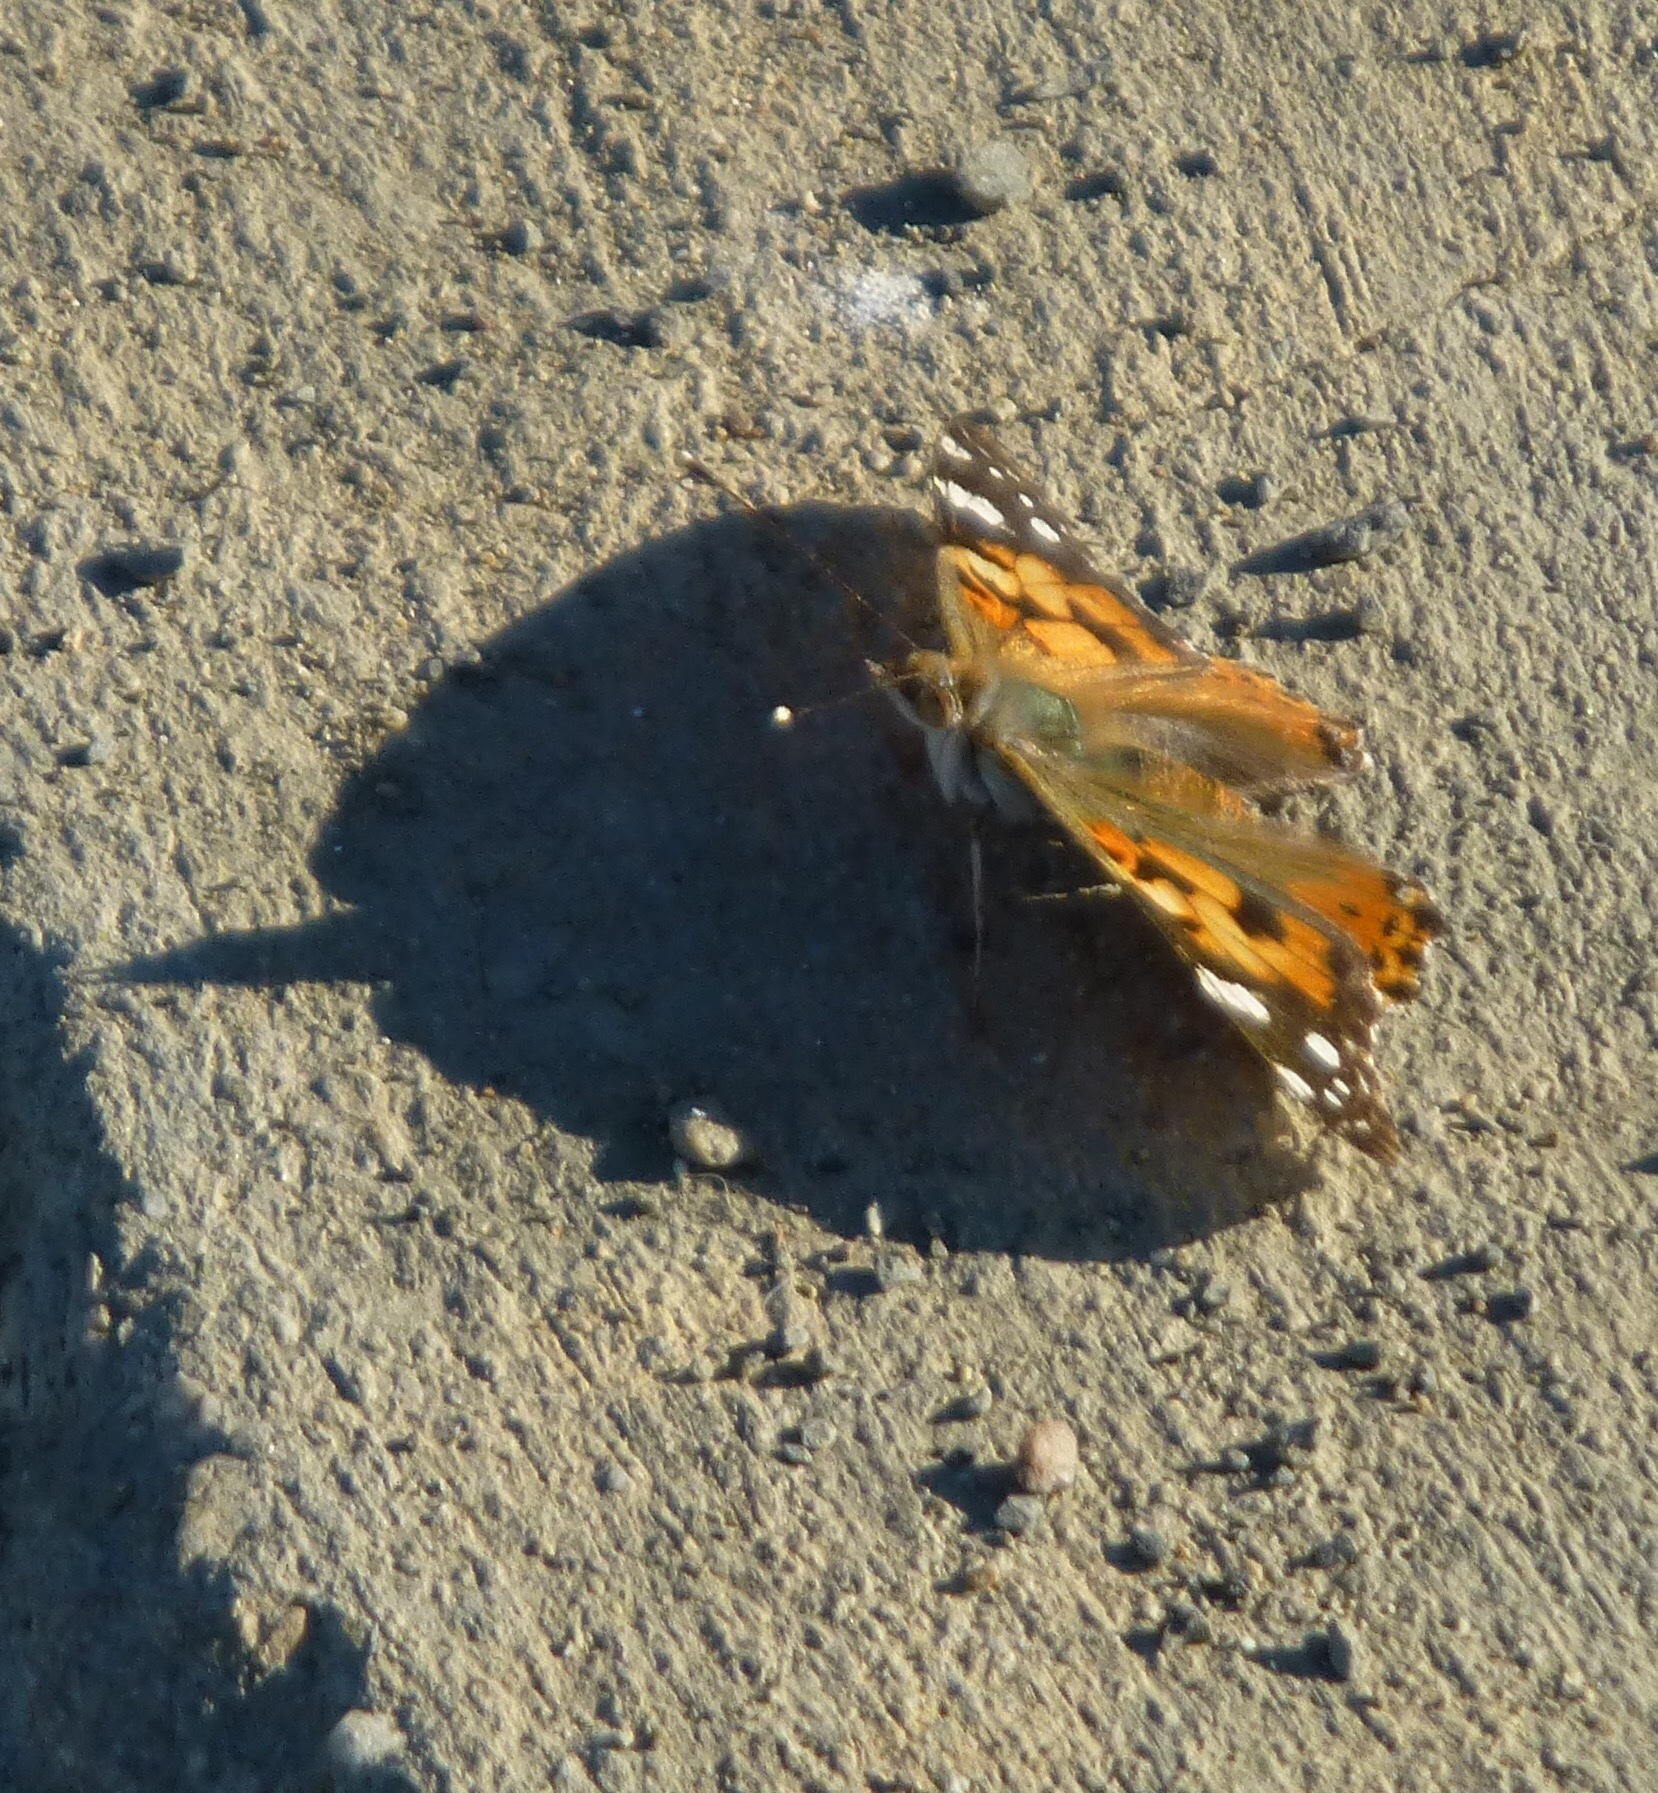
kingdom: Animalia
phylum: Arthropoda
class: Insecta
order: Lepidoptera
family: Nymphalidae
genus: Vanessa
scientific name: Vanessa cardui
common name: Painted lady
